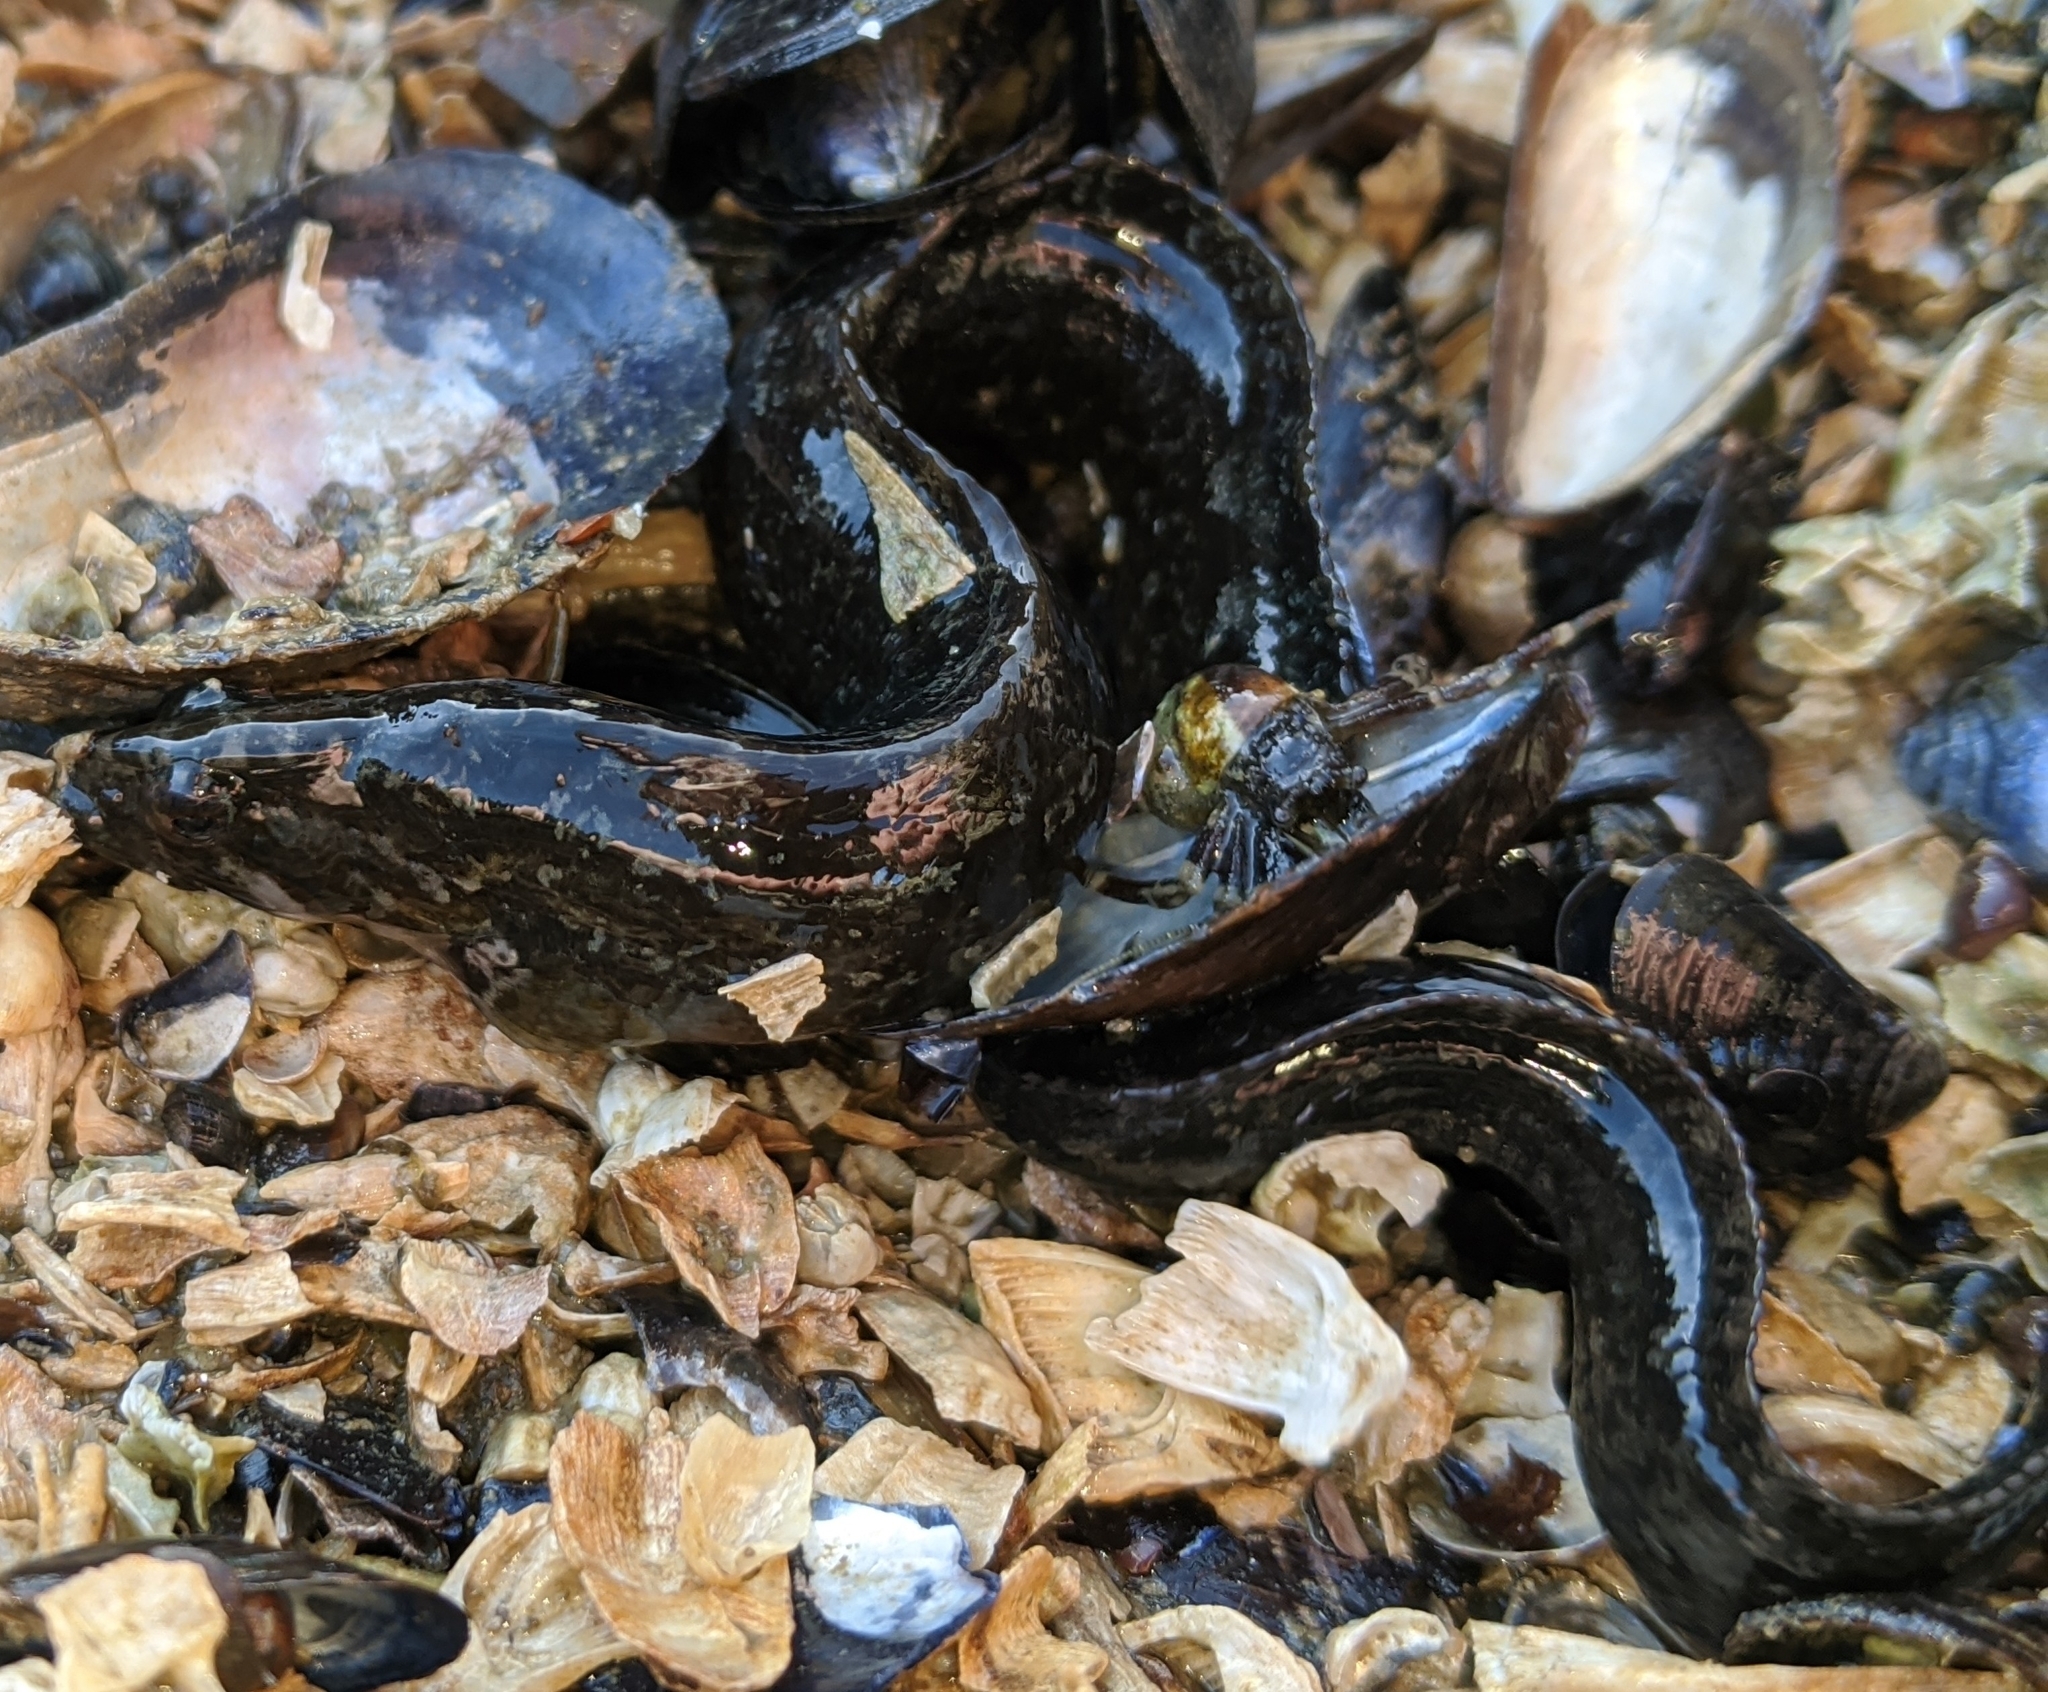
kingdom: Animalia
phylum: Chordata
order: Perciformes
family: Stichaeidae
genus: Anoplarchus
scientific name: Anoplarchus purpurescens
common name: High cockscomb
